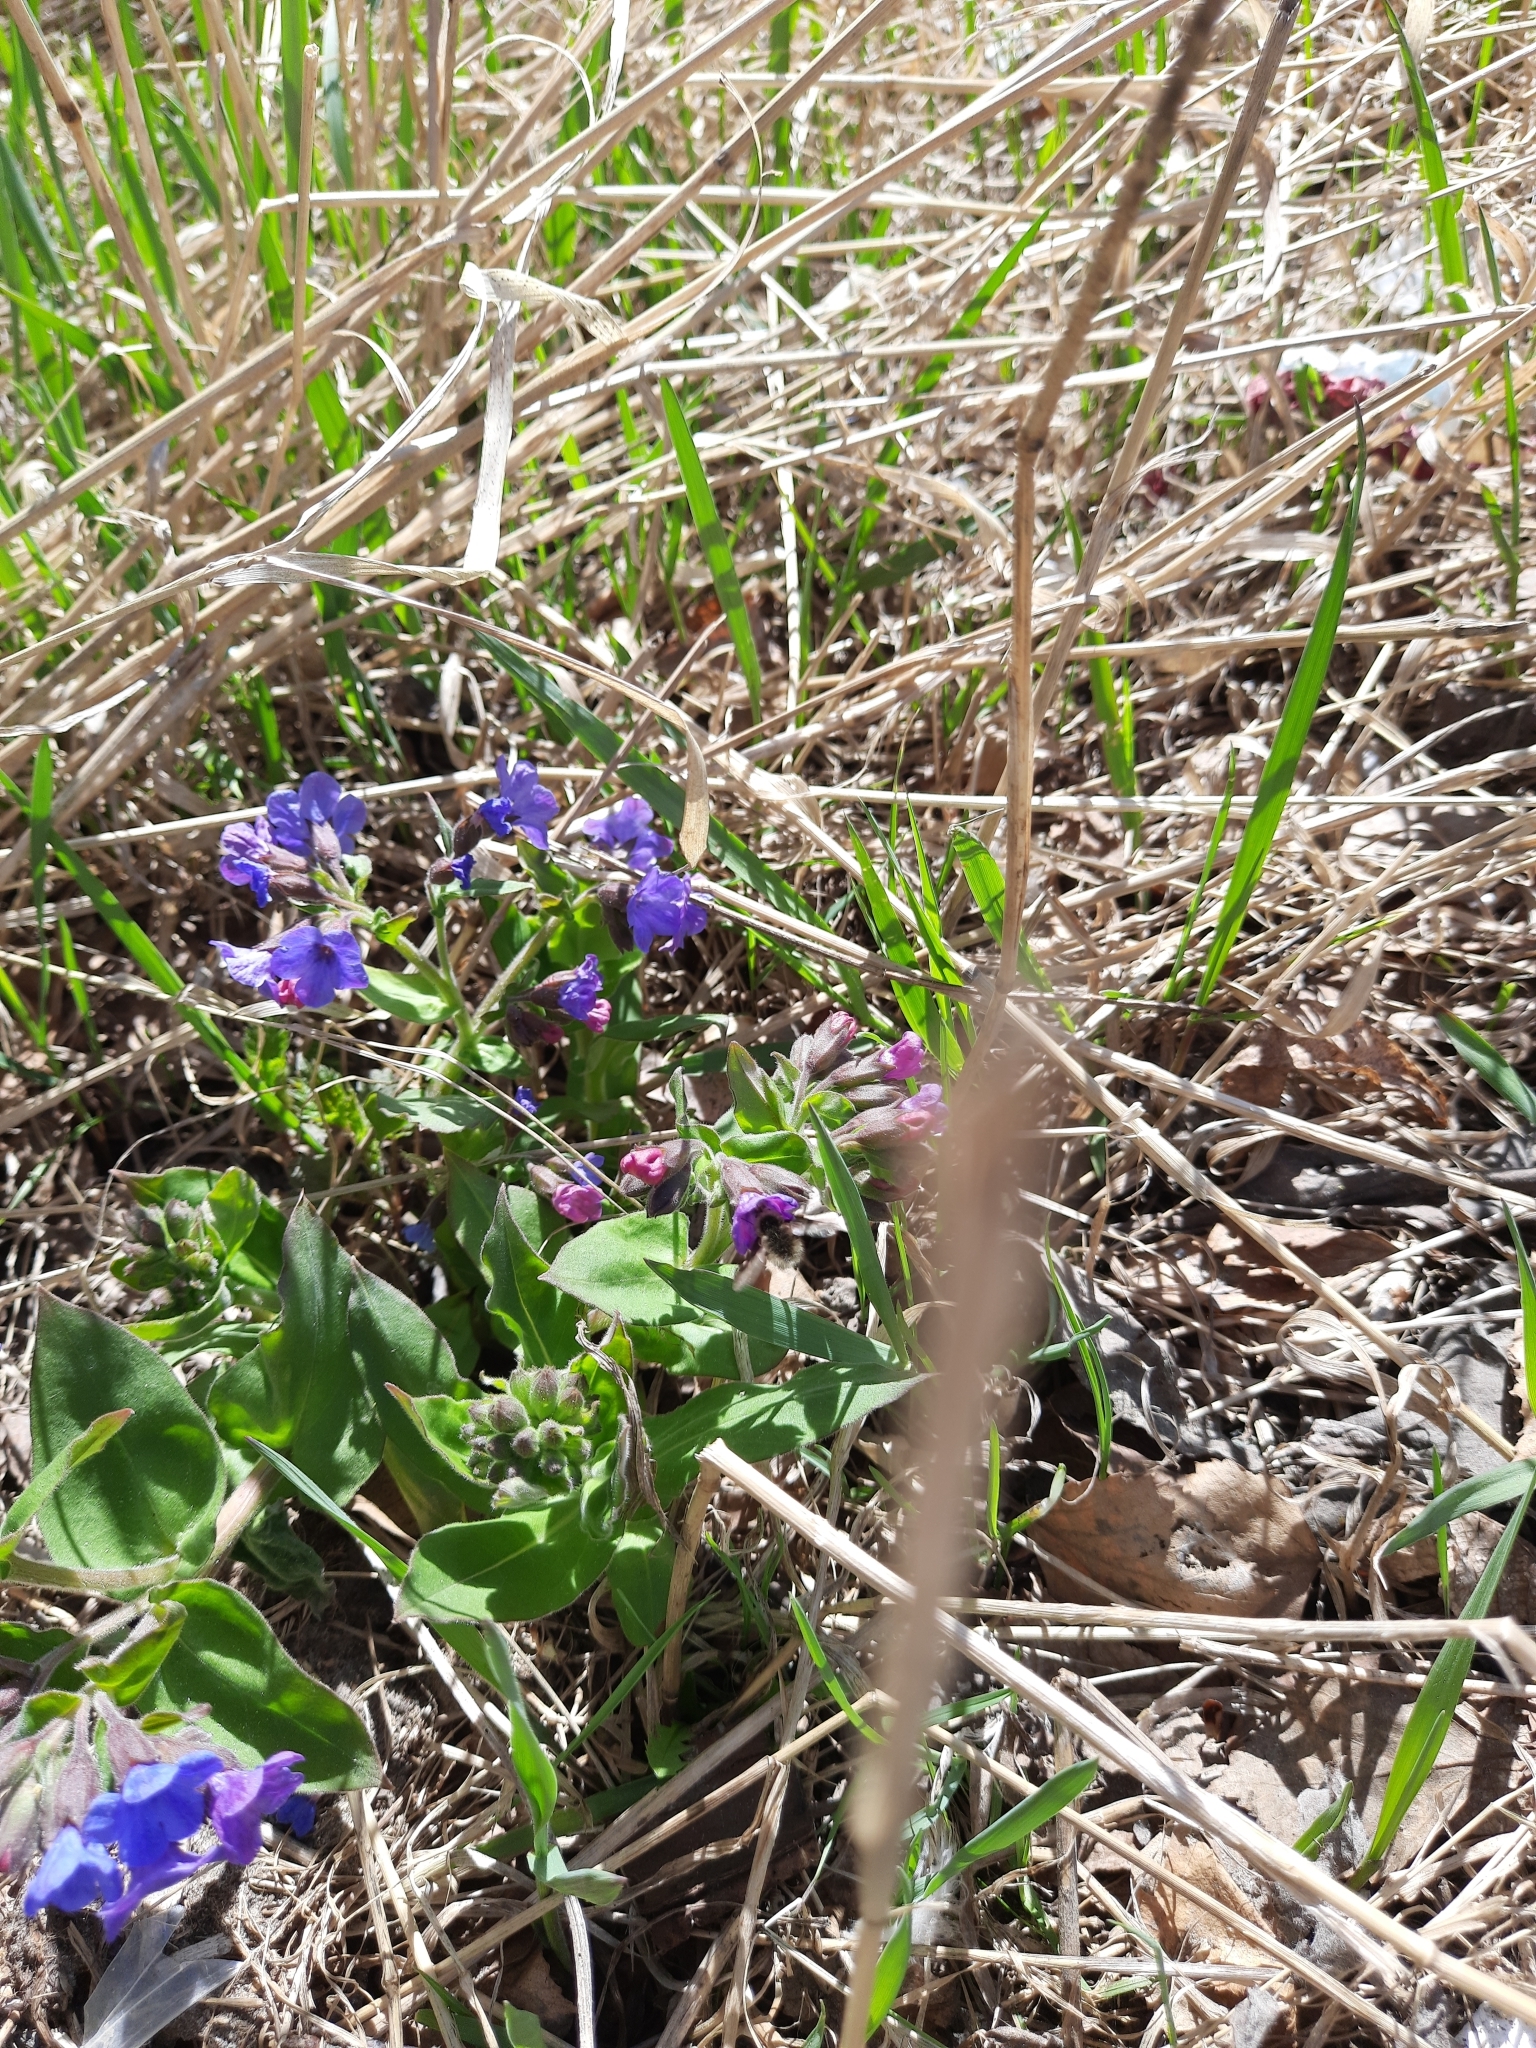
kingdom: Plantae
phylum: Tracheophyta
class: Magnoliopsida
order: Boraginales
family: Boraginaceae
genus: Pulmonaria
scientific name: Pulmonaria mollis
